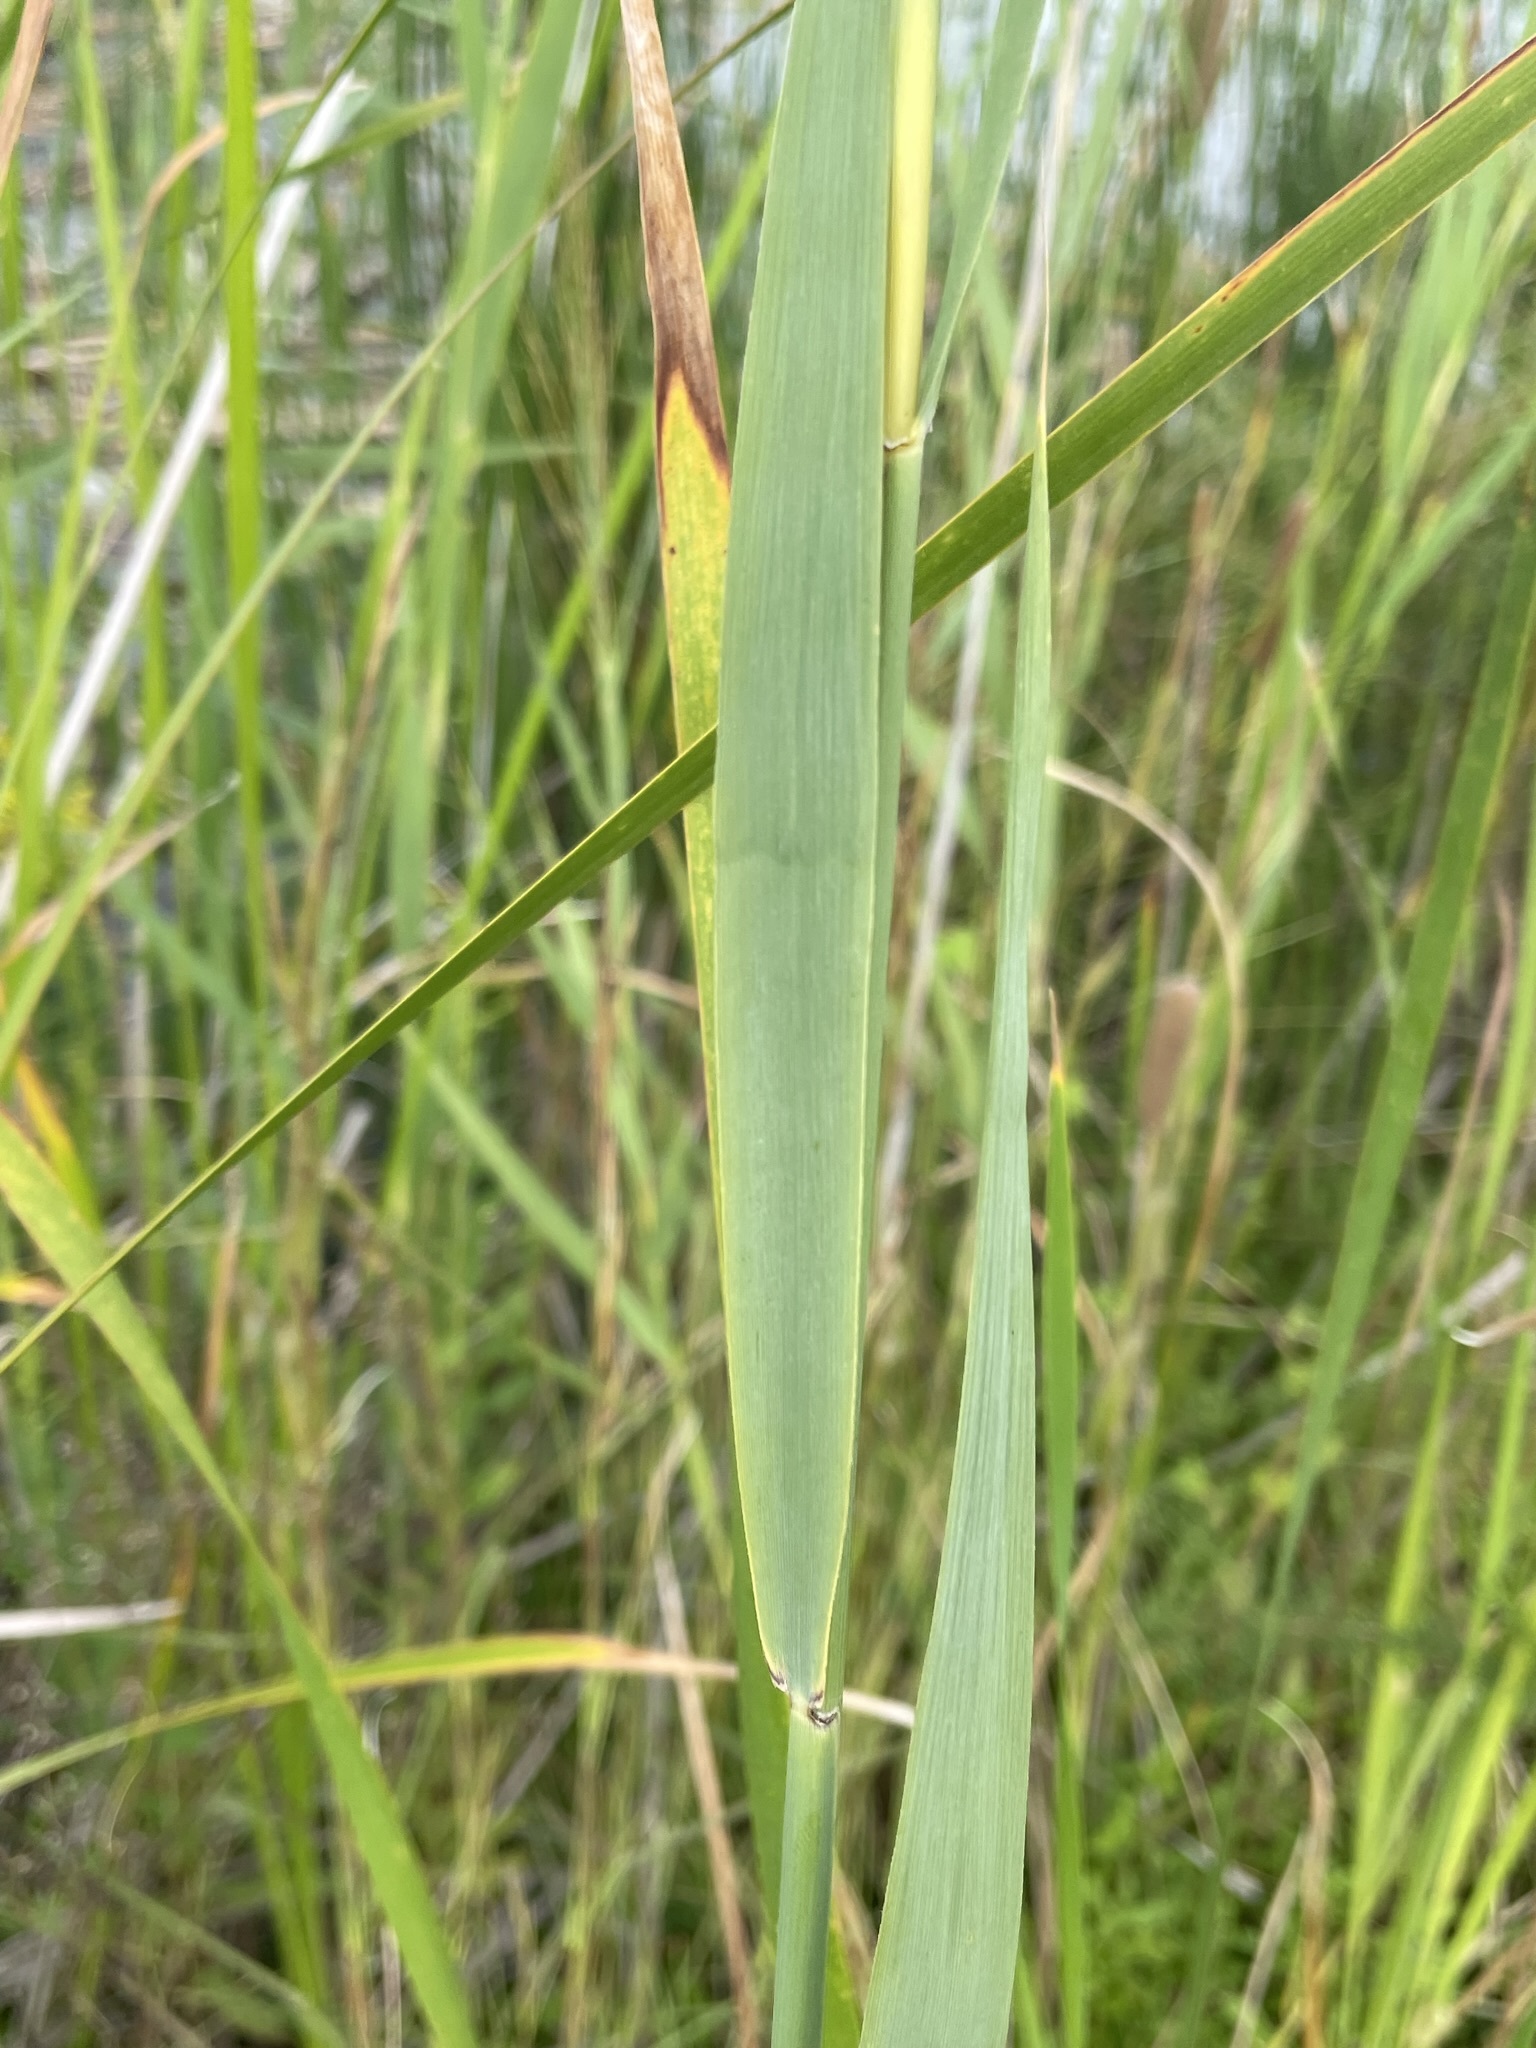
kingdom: Plantae
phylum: Tracheophyta
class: Liliopsida
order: Poales
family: Poaceae
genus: Phragmites
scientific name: Phragmites australis
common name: Common reed
